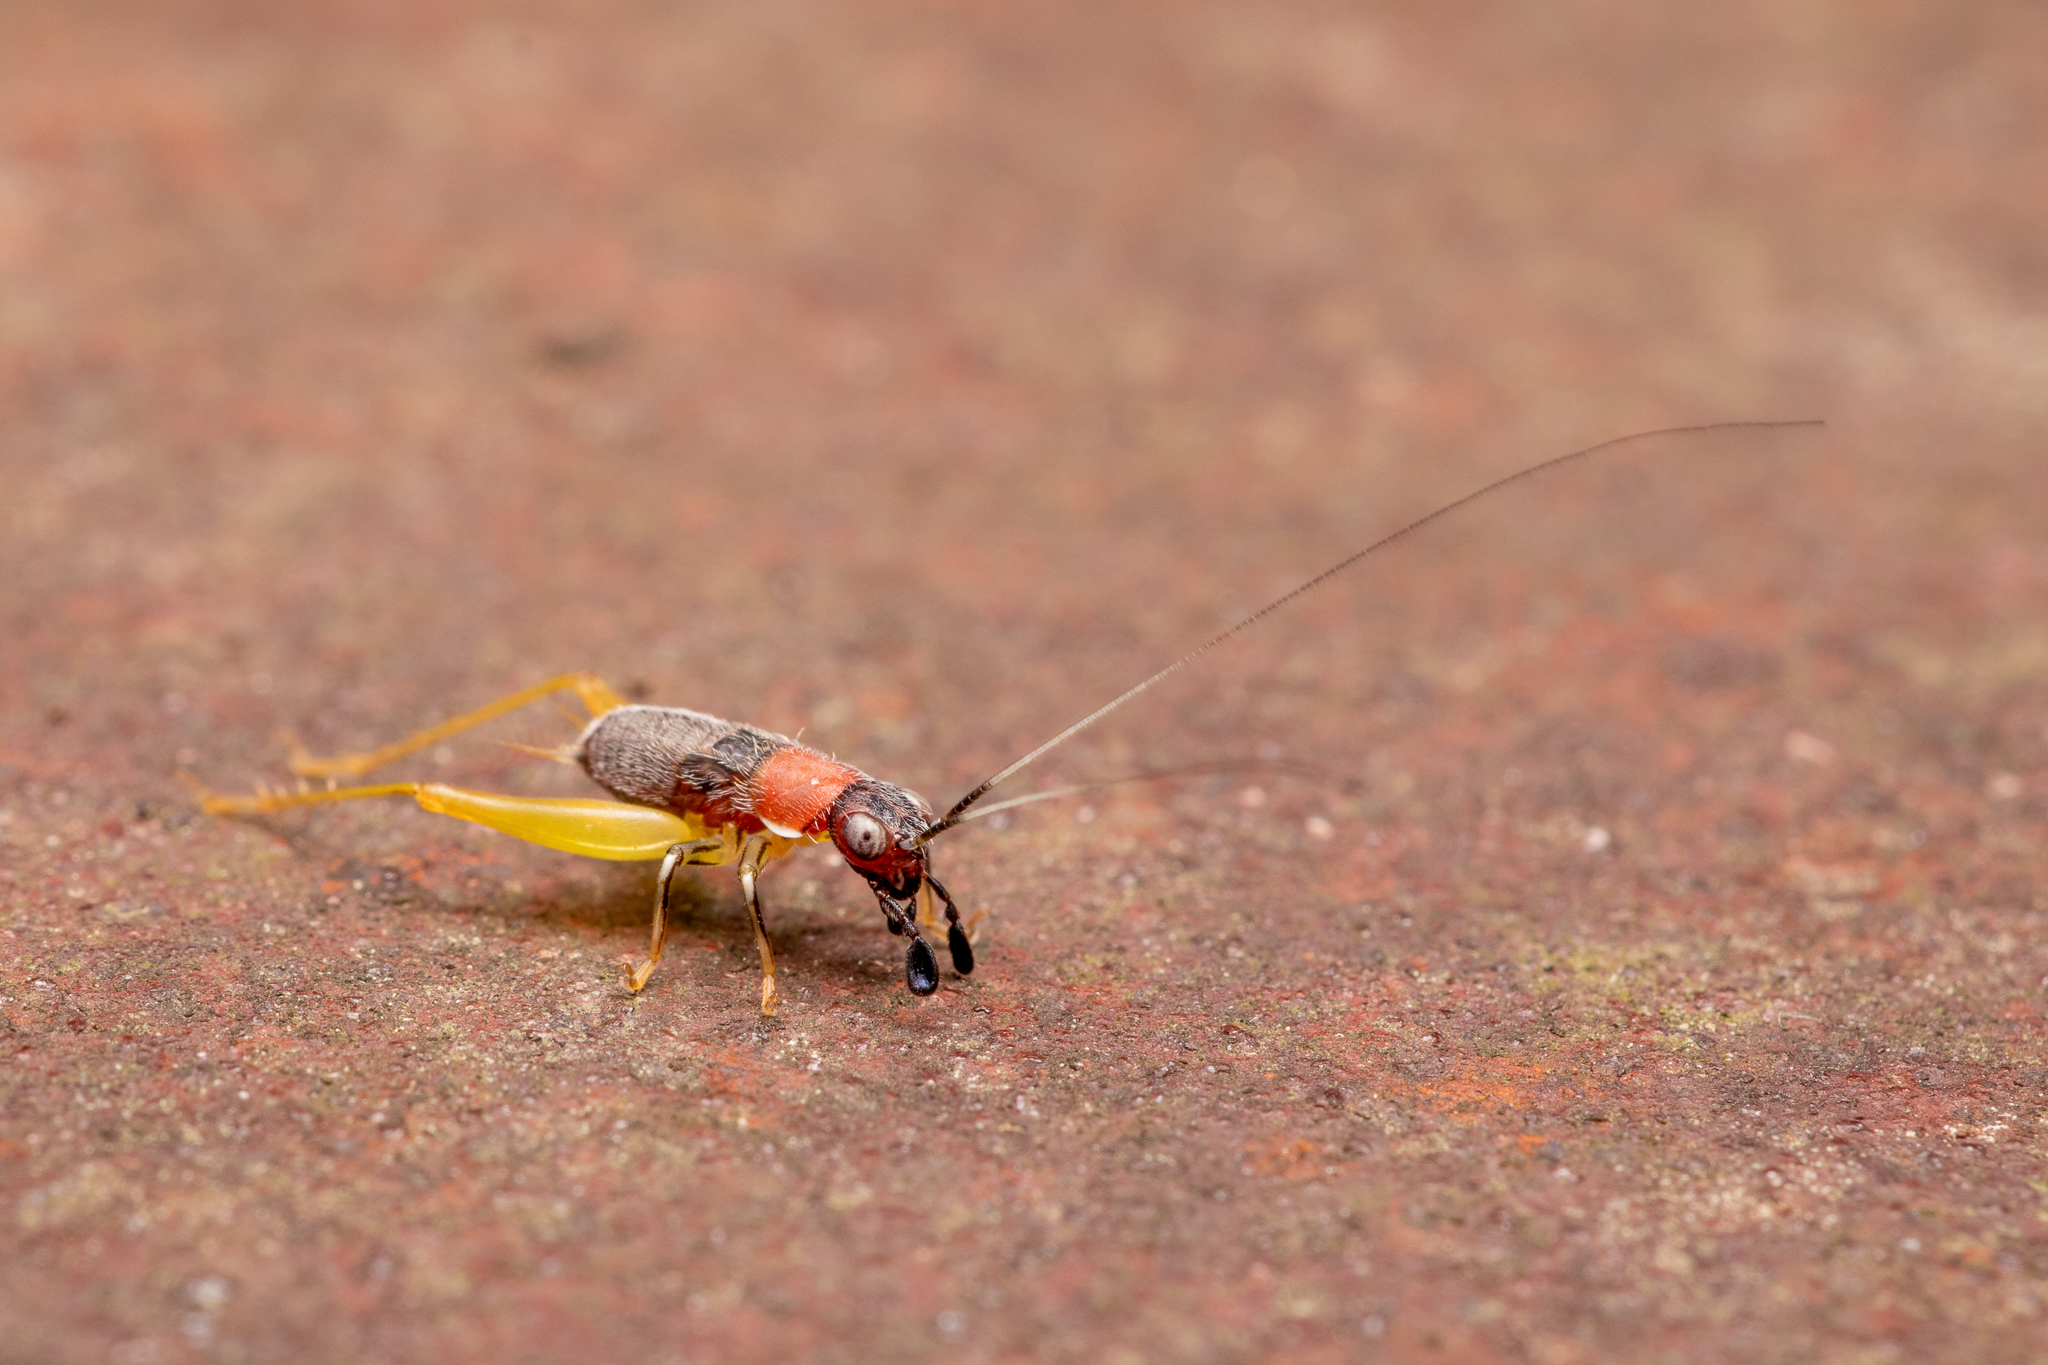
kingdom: Animalia
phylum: Arthropoda
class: Insecta
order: Orthoptera
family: Trigonidiidae
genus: Phyllopalpus
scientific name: Phyllopalpus pulchellus
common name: Handsome trig
